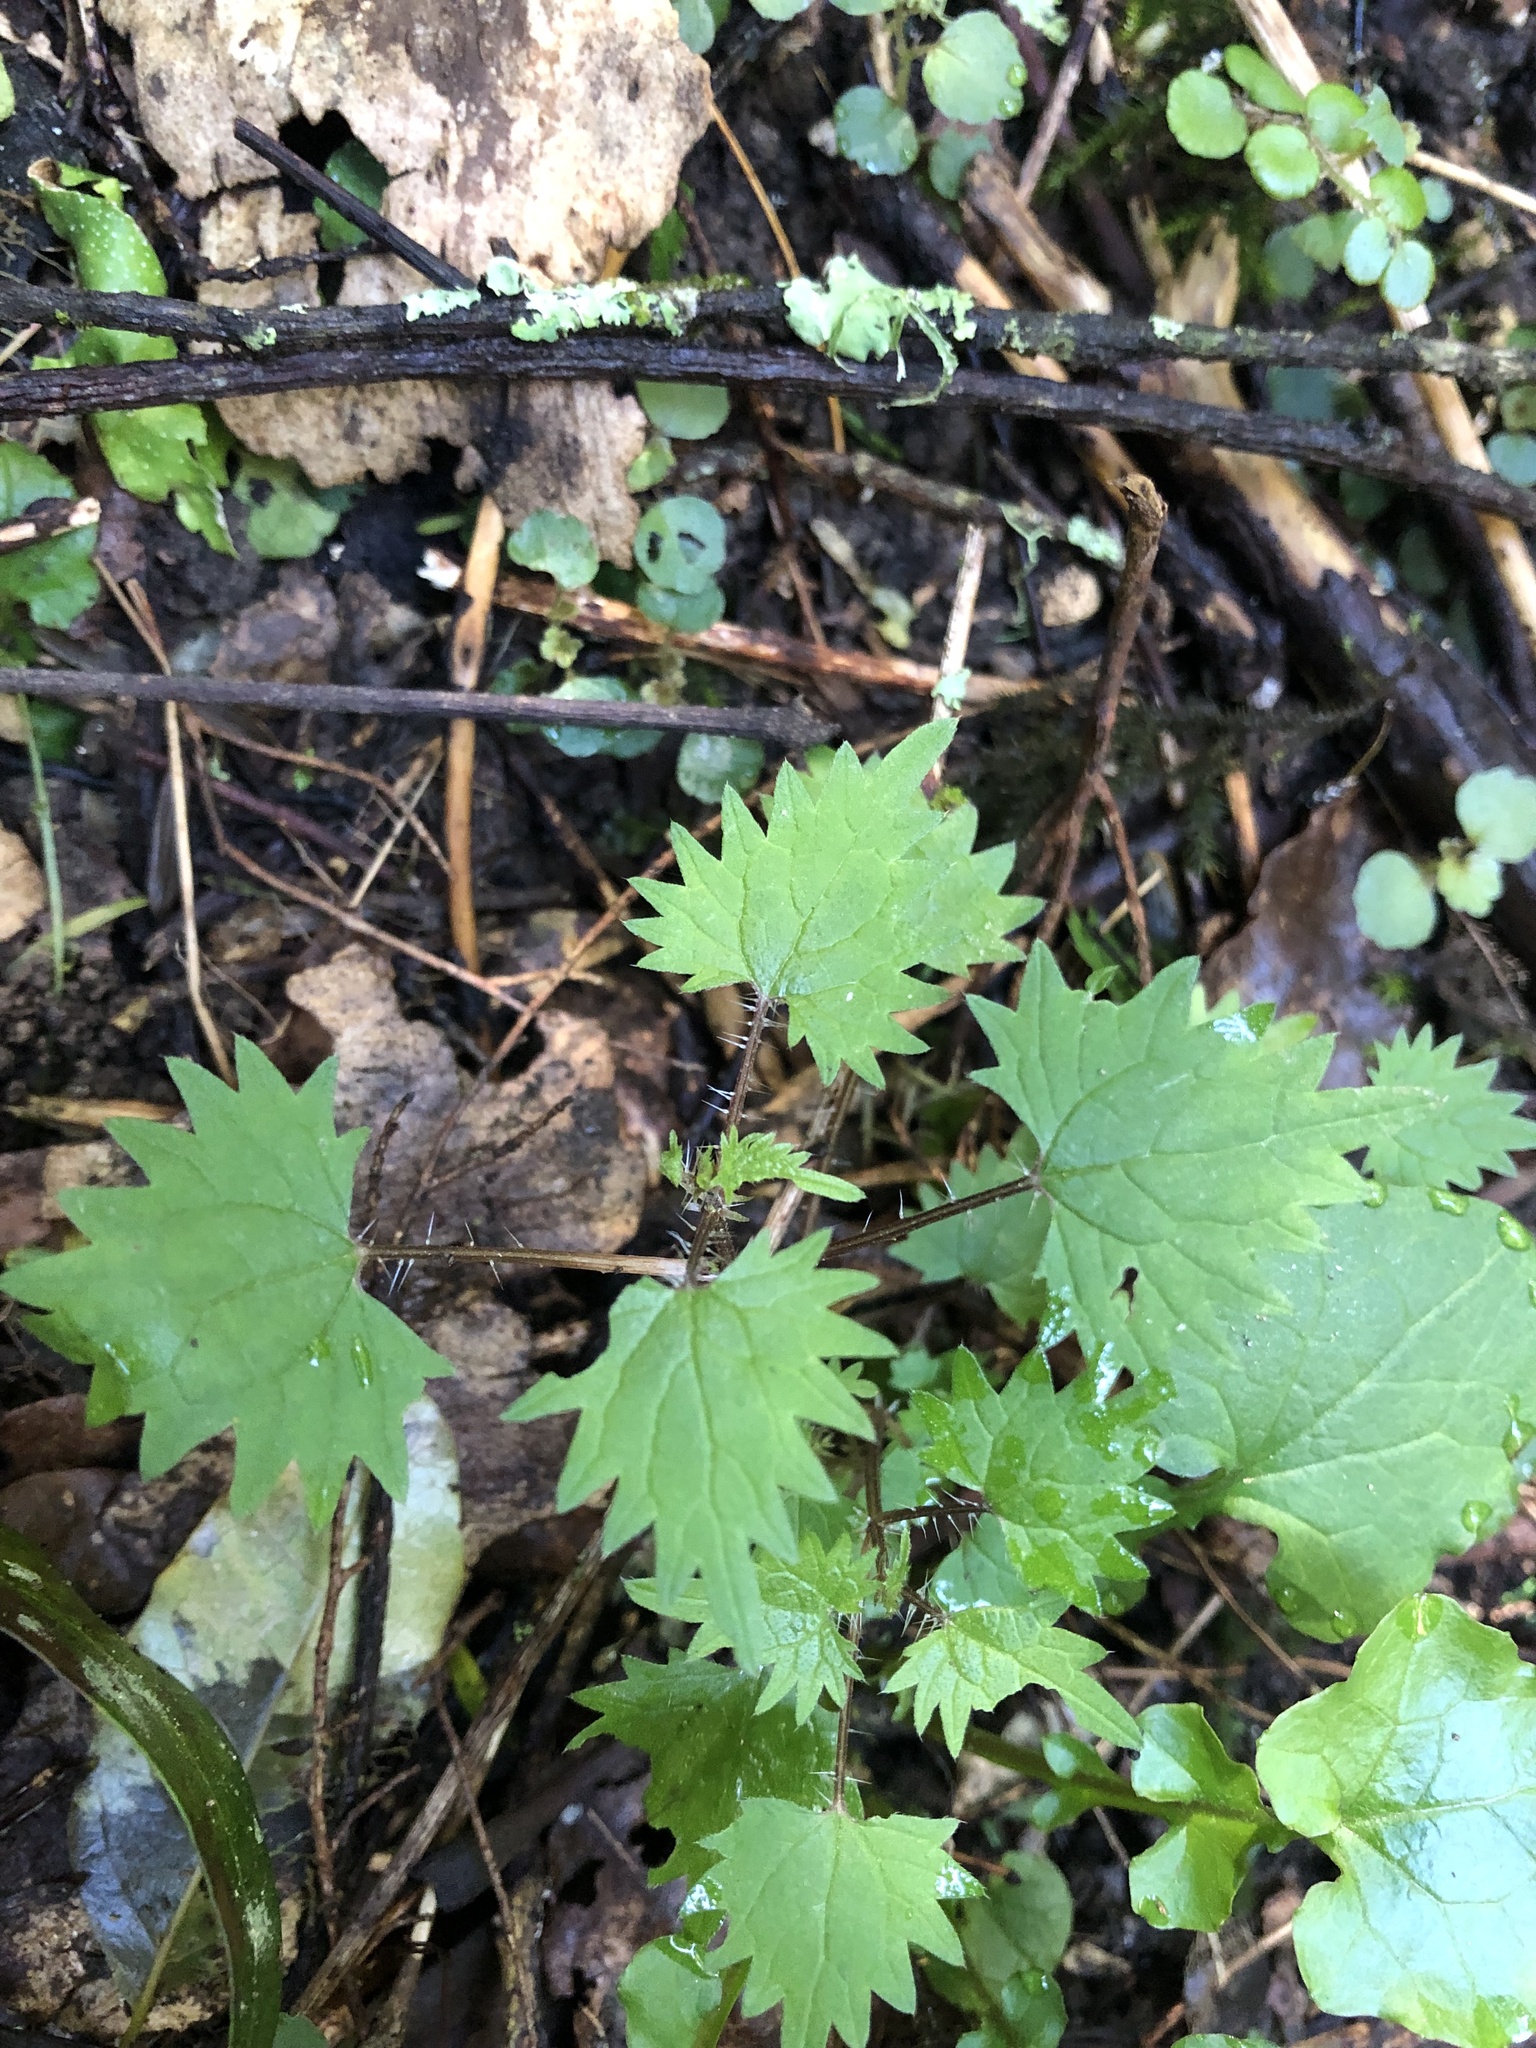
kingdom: Plantae
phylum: Tracheophyta
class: Magnoliopsida
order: Rosales
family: Urticaceae
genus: Urtica
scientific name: Urtica sykesii
